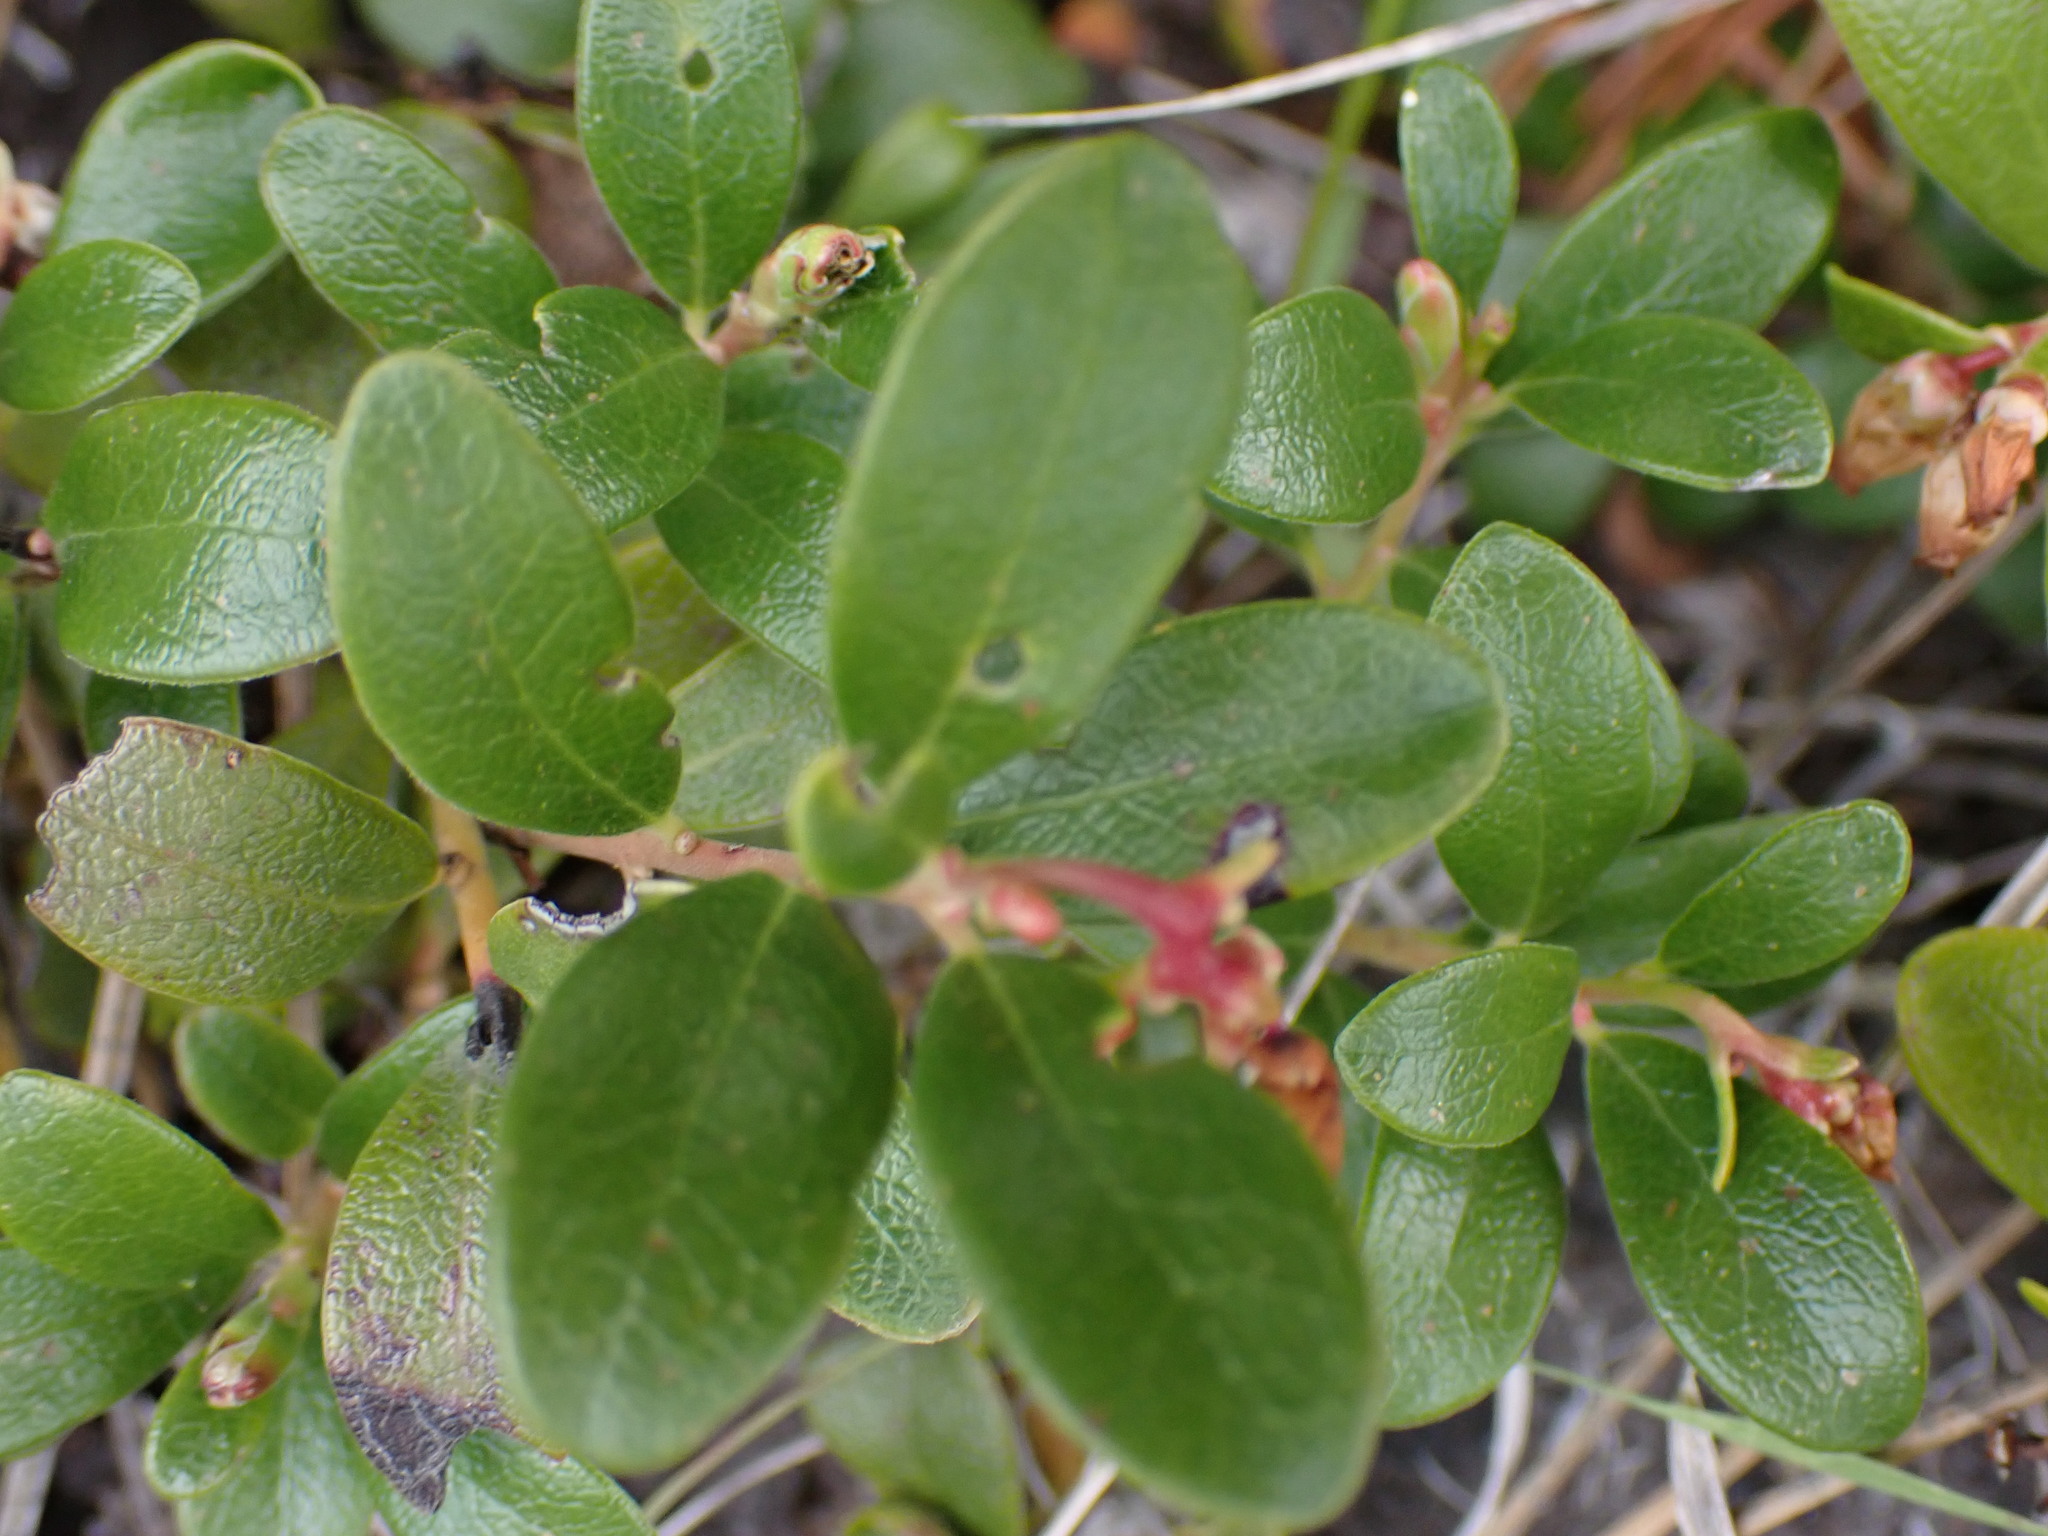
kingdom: Plantae
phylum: Tracheophyta
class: Magnoliopsida
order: Ericales
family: Ericaceae
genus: Arctostaphylos
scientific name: Arctostaphylos uva-ursi
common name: Bearberry
